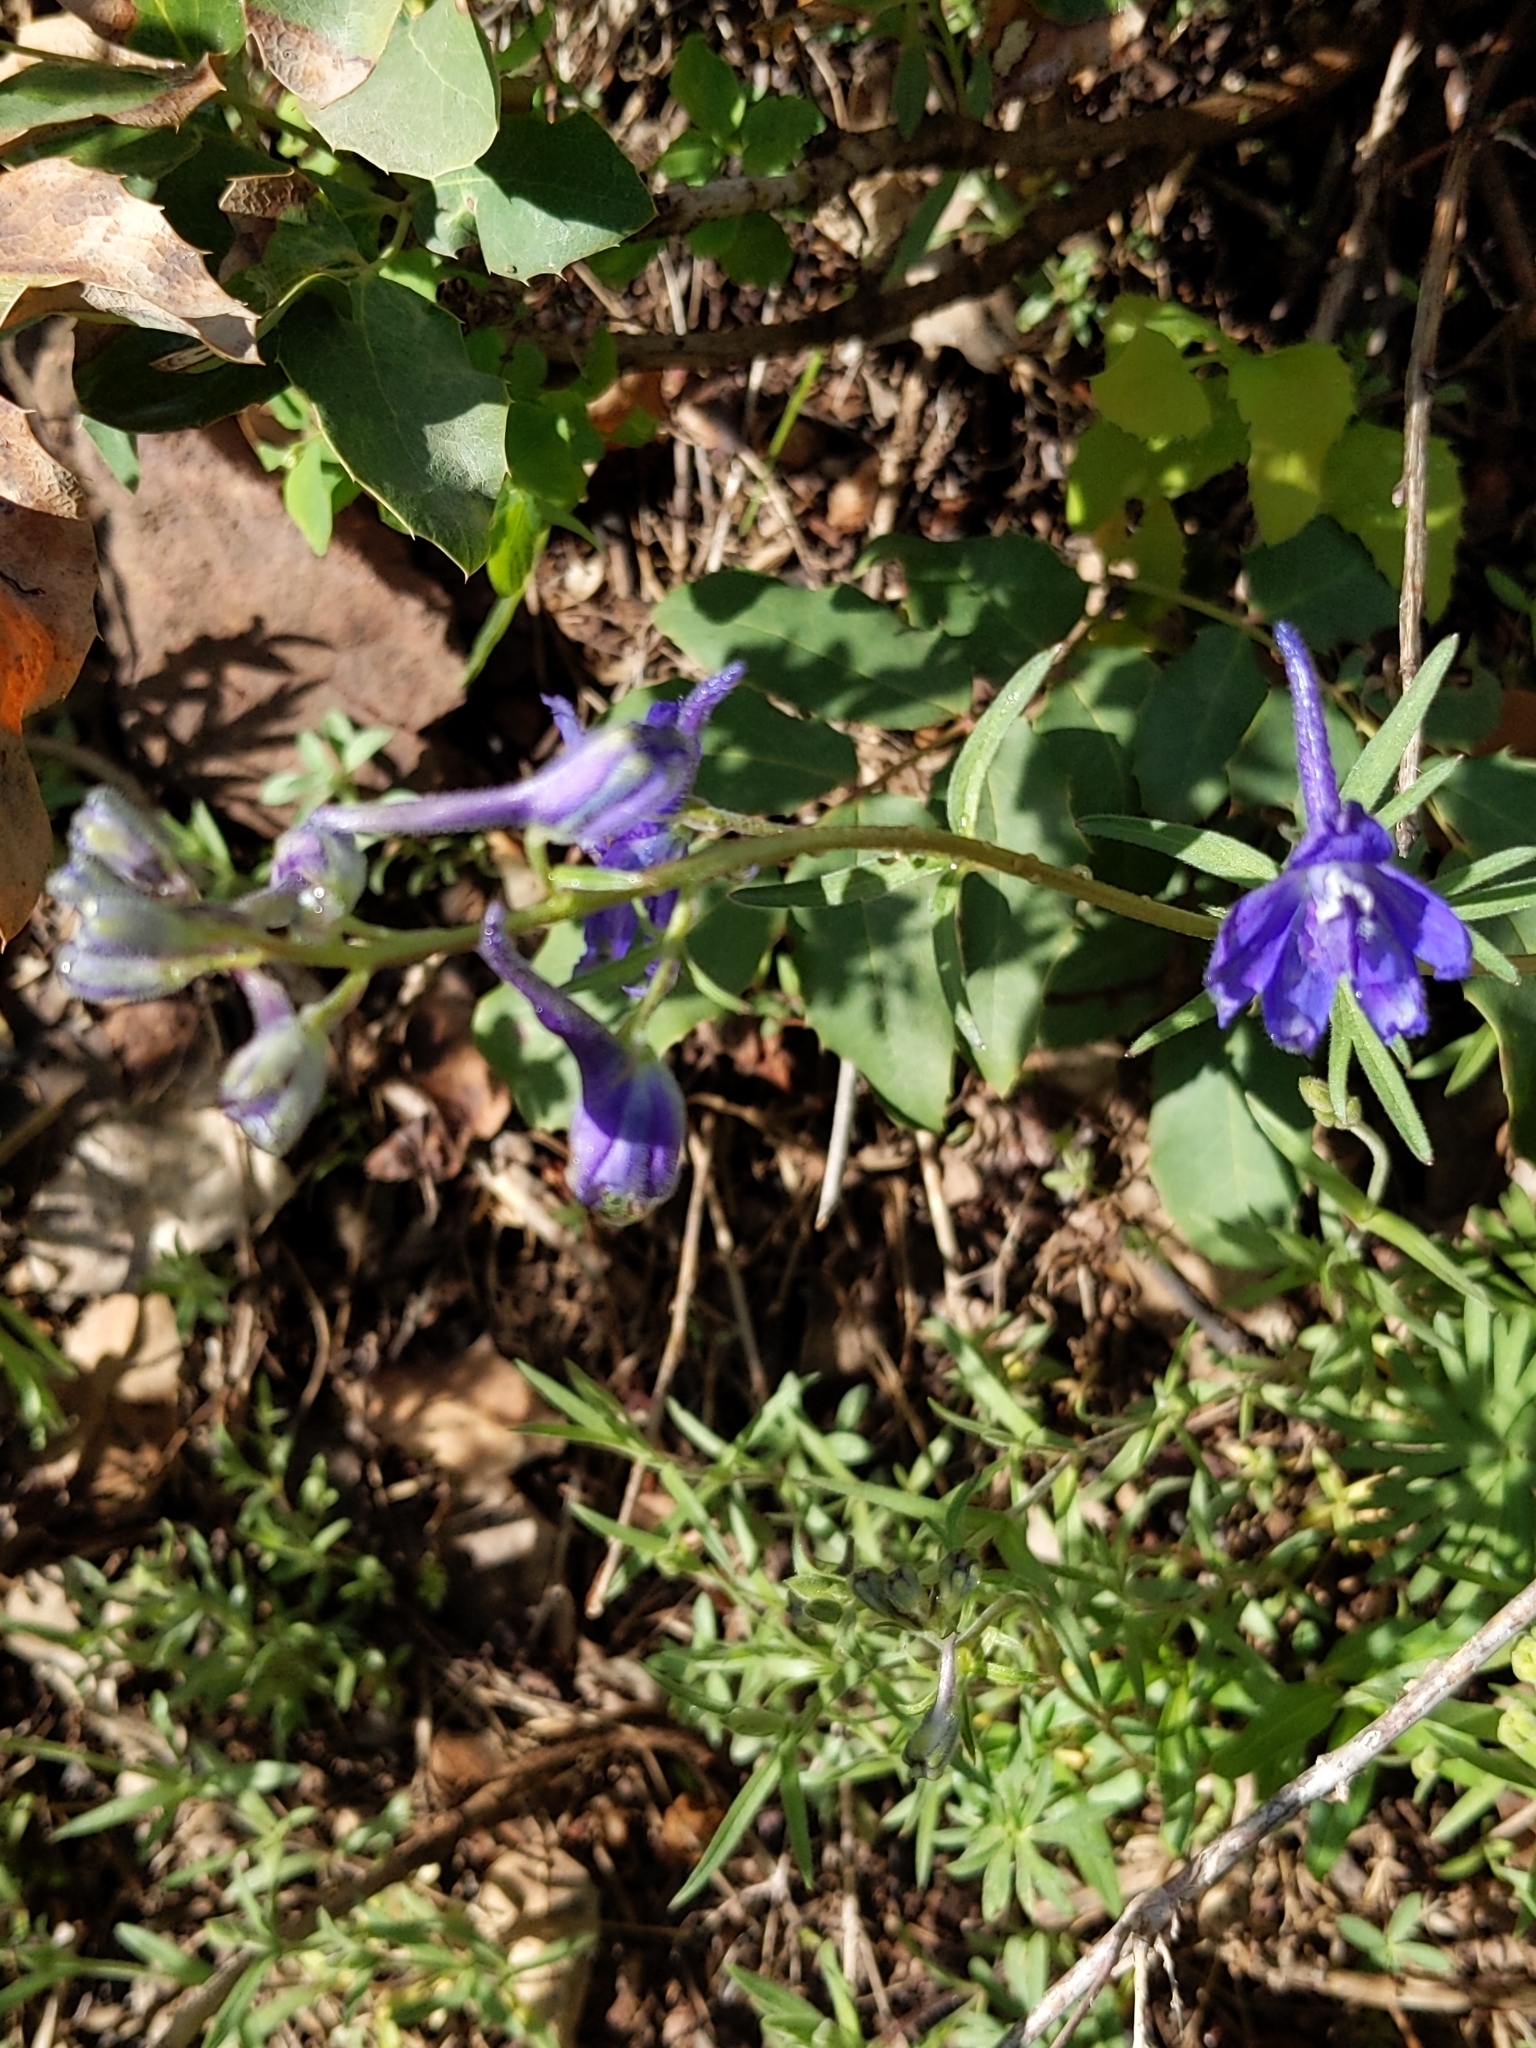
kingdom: Plantae
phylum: Tracheophyta
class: Magnoliopsida
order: Ranunculales
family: Ranunculaceae
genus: Delphinium
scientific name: Delphinium nuttallianum
